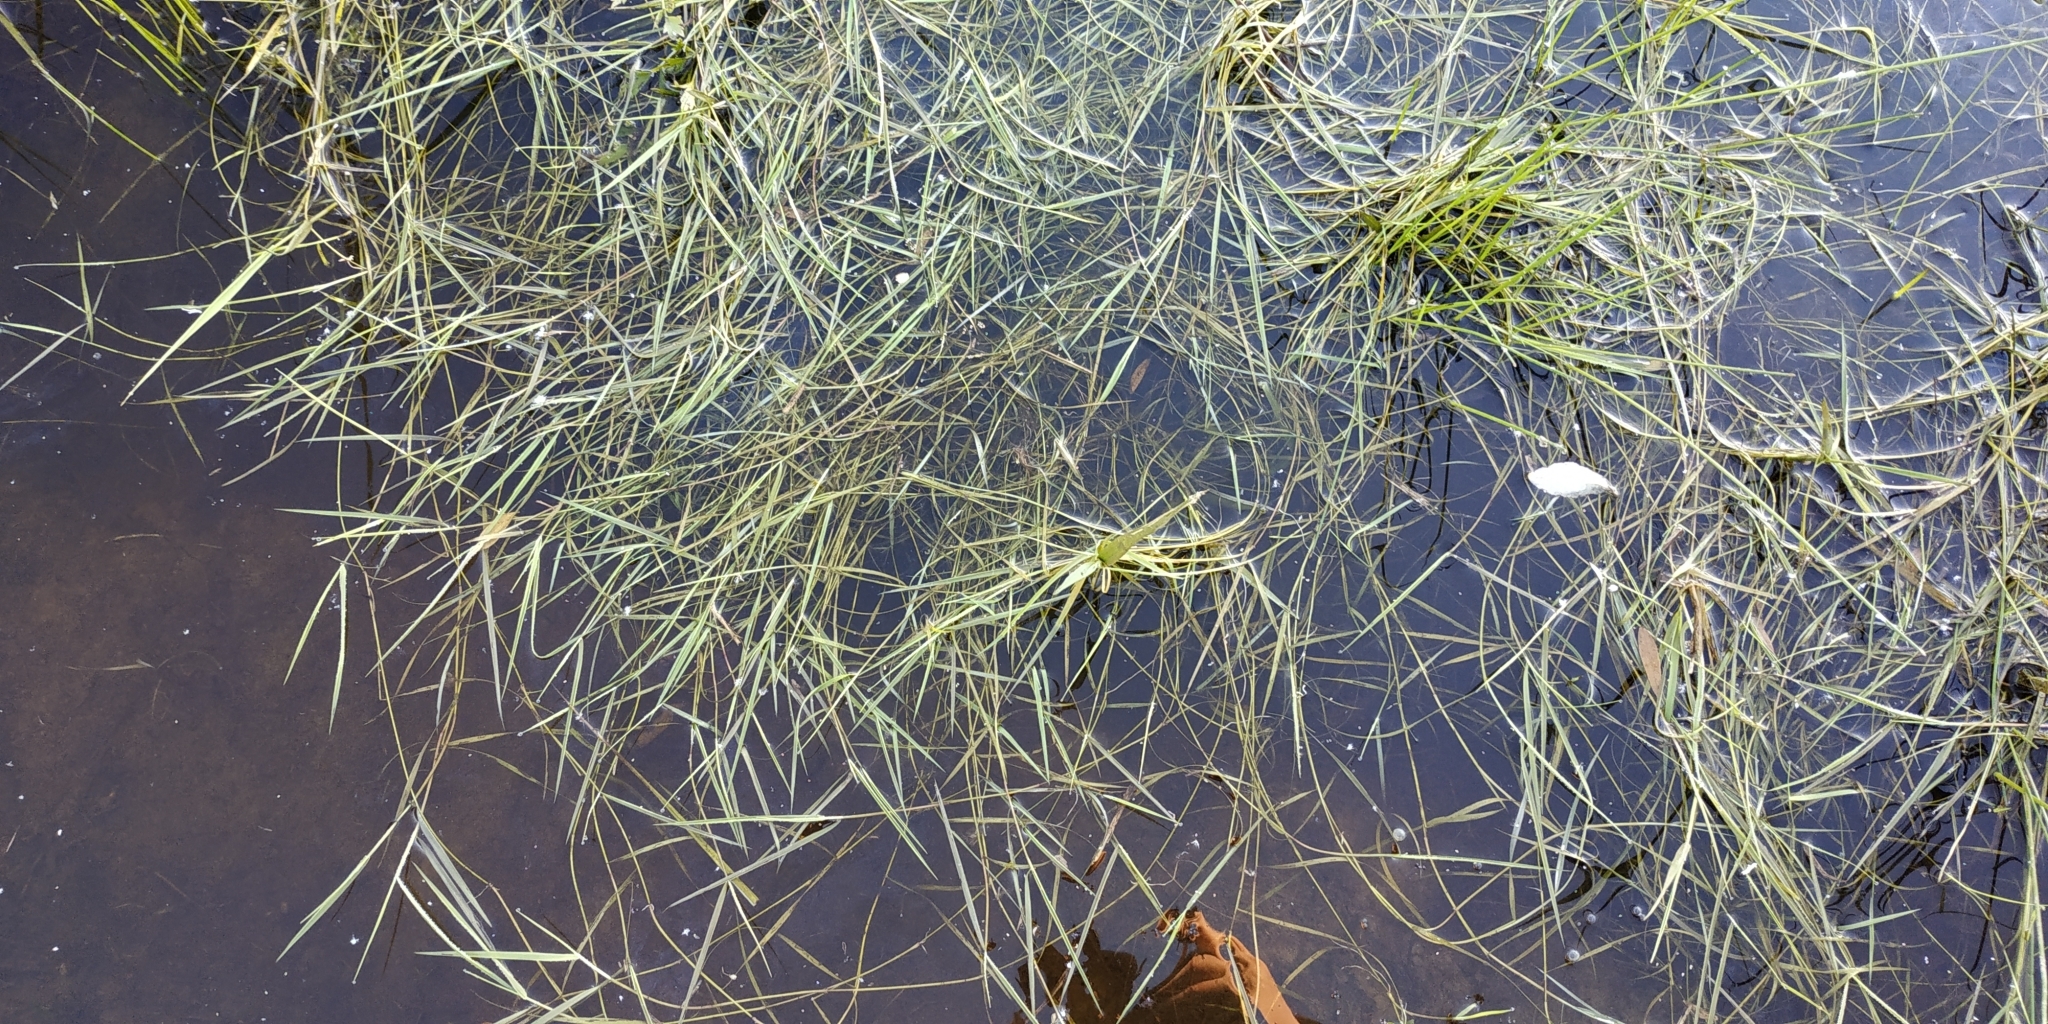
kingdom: Plantae
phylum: Tracheophyta
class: Liliopsida
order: Poales
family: Poaceae
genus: Alopecurus
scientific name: Alopecurus aequalis
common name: Orange foxtail
